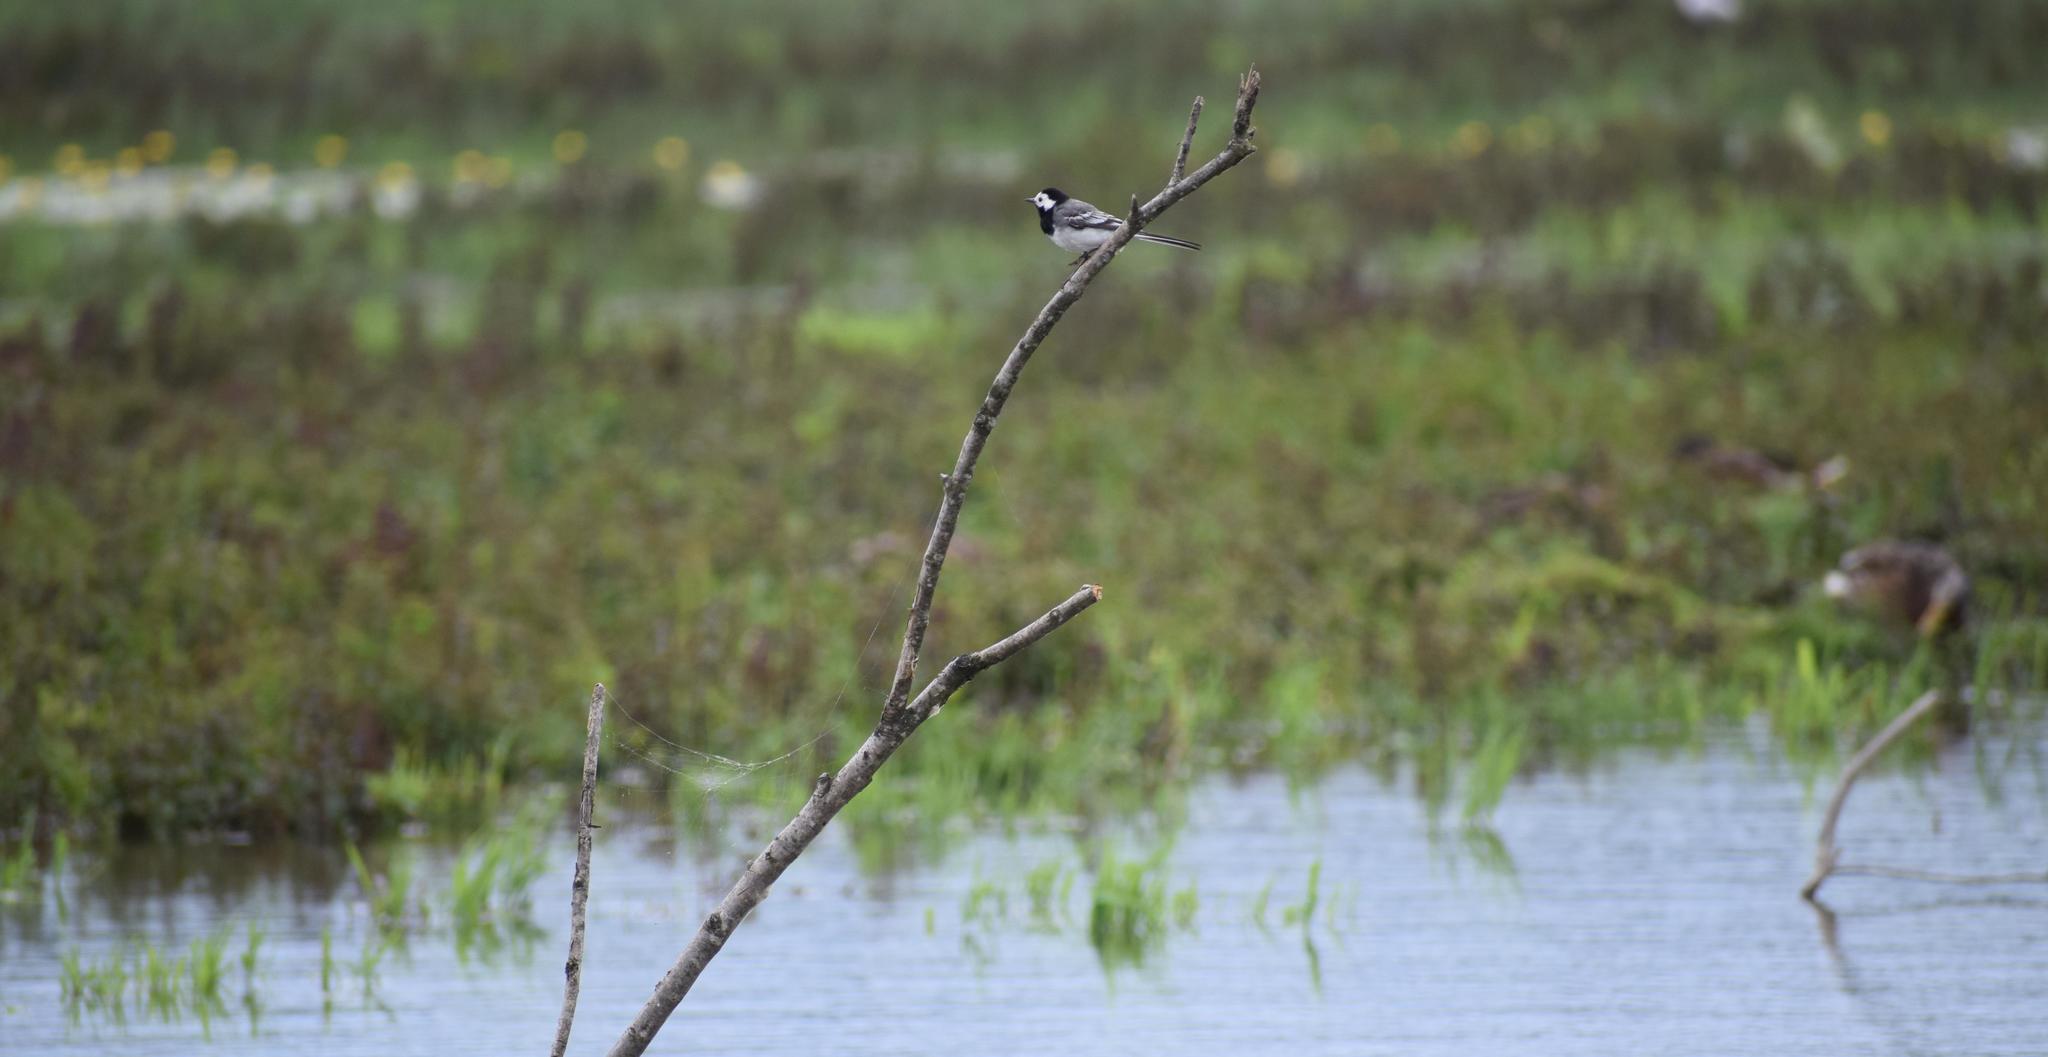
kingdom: Animalia
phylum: Chordata
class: Aves
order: Passeriformes
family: Motacillidae
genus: Motacilla
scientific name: Motacilla alba
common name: White wagtail
